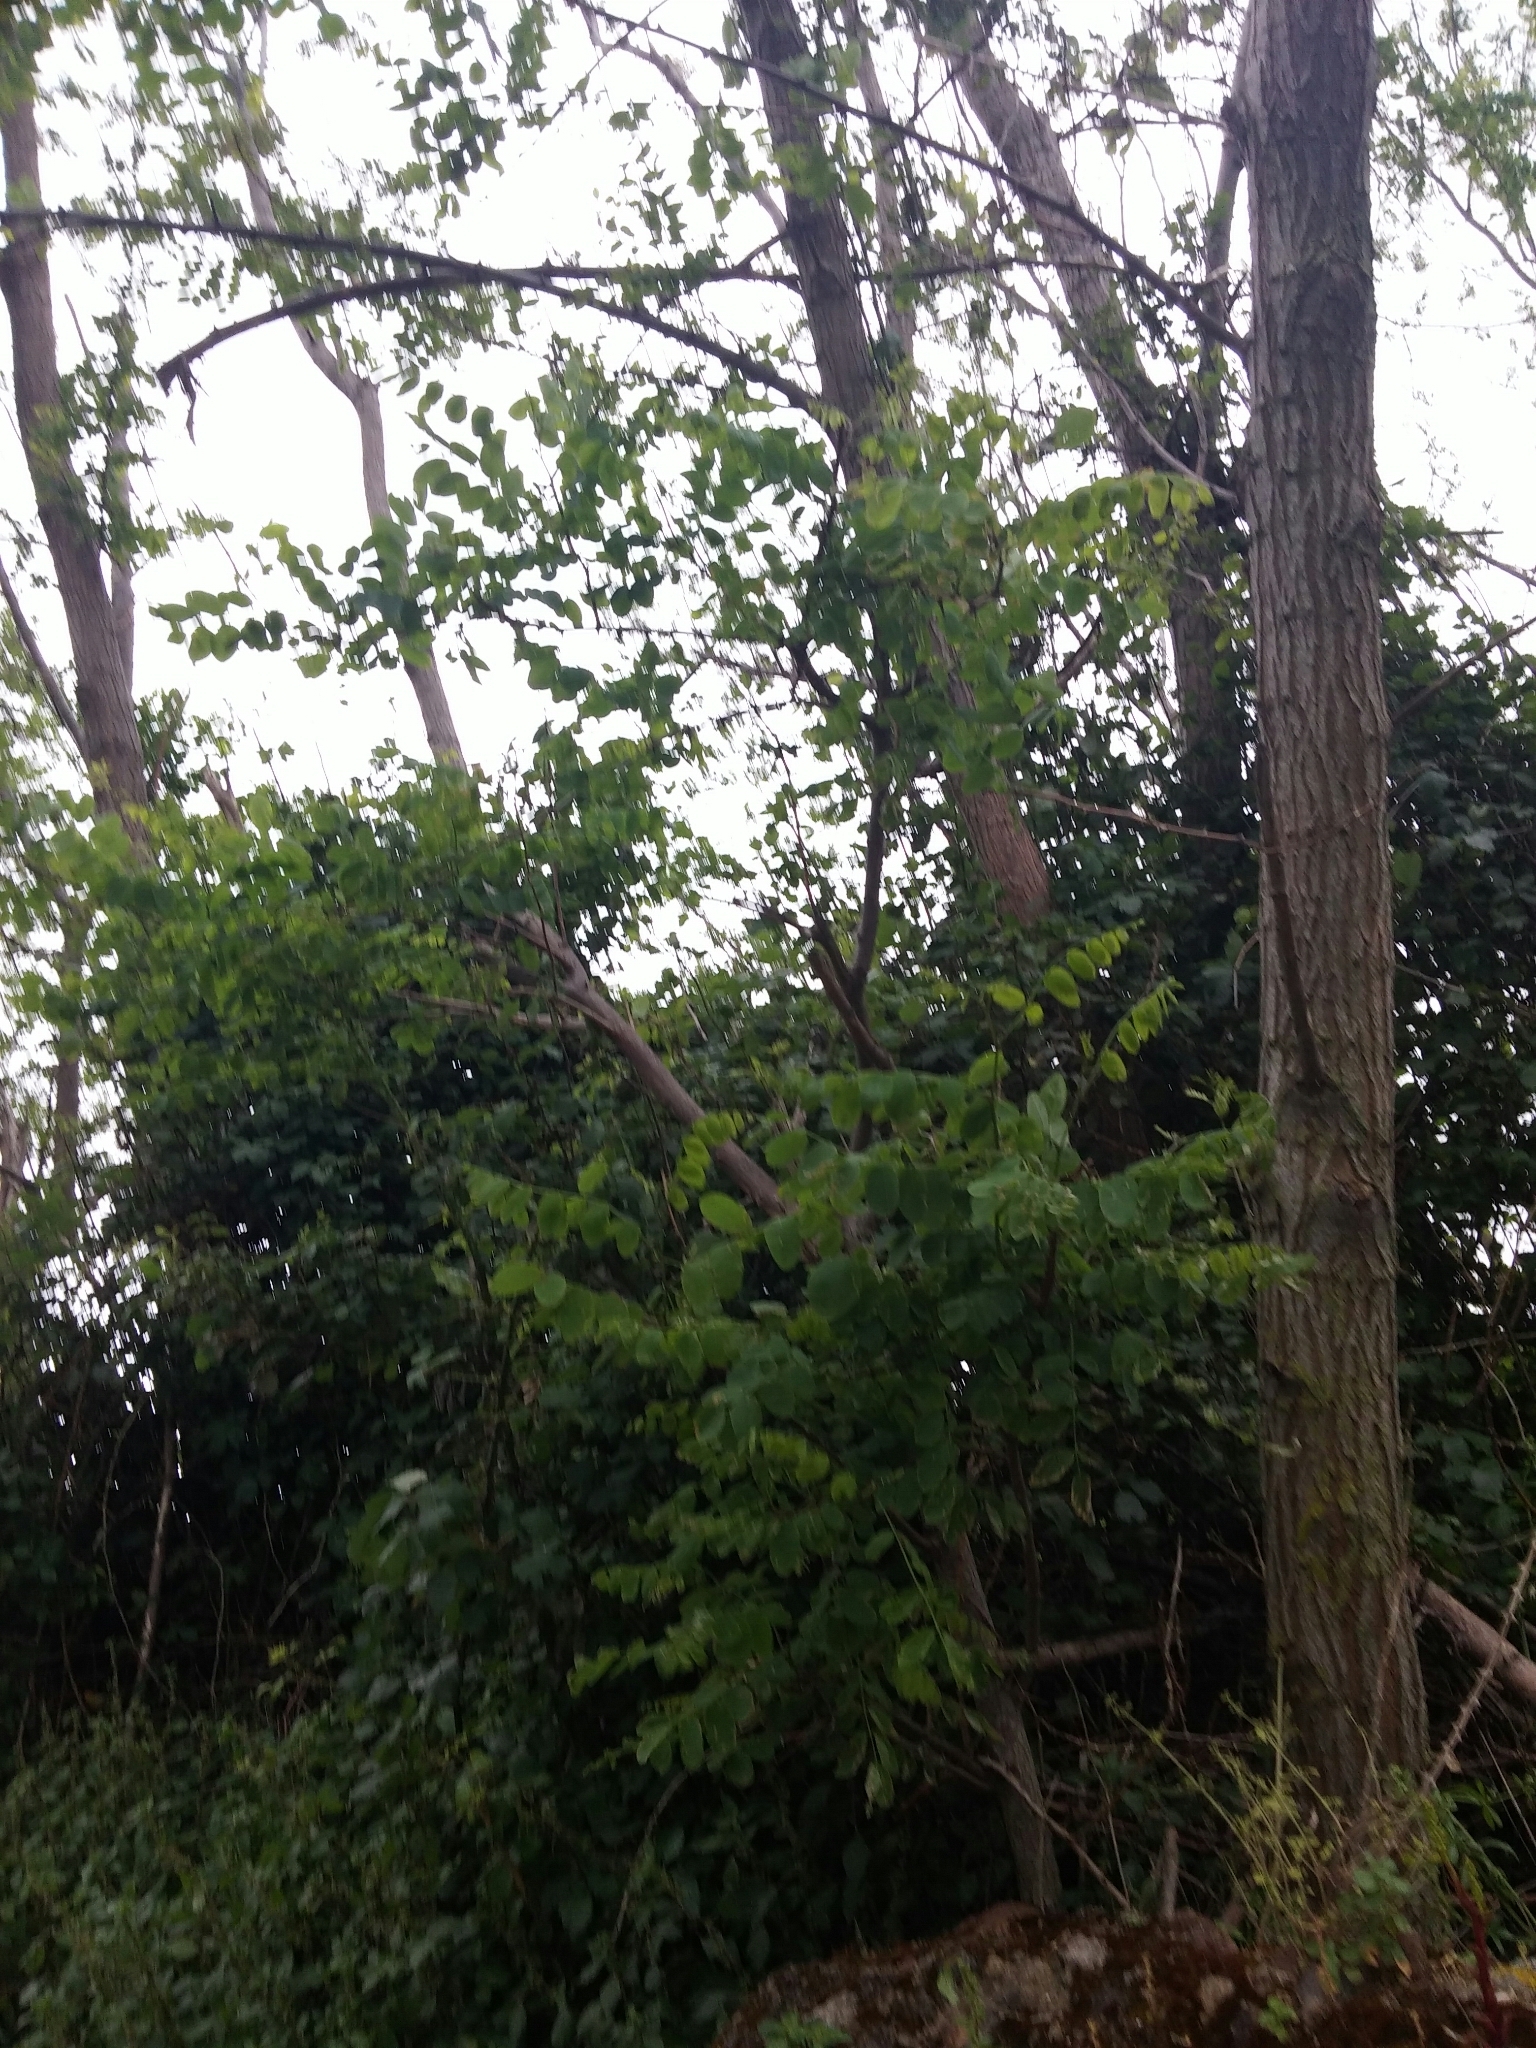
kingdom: Plantae
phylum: Tracheophyta
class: Magnoliopsida
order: Fabales
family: Fabaceae
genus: Robinia
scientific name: Robinia pseudoacacia
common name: Black locust
